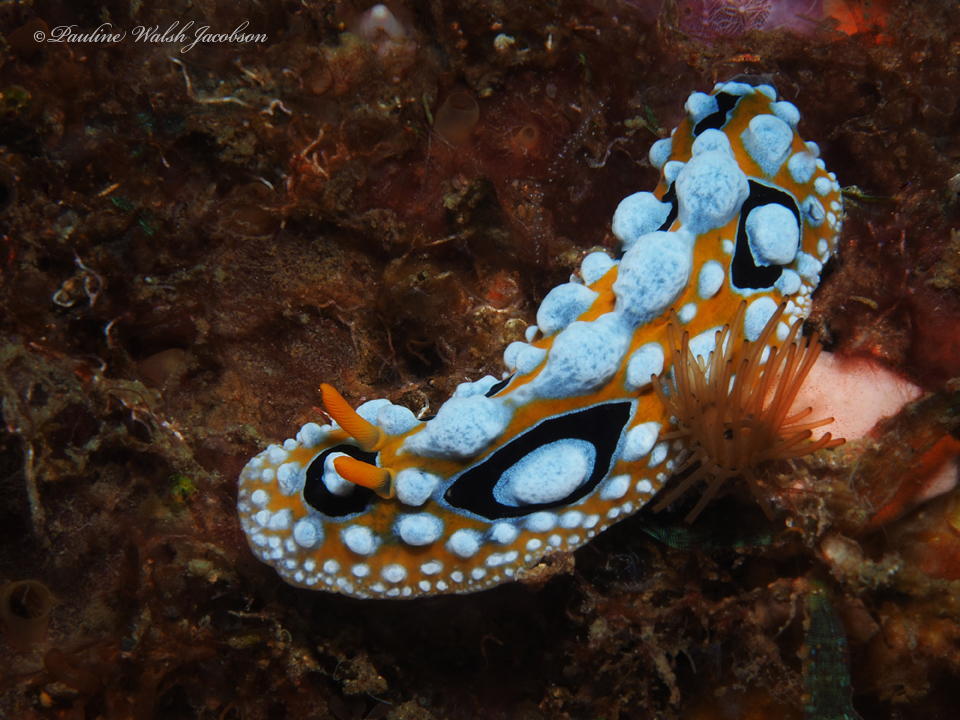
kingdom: Animalia
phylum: Mollusca
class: Gastropoda
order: Nudibranchia
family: Phyllidiidae
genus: Phyllidia
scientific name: Phyllidia ocellata
